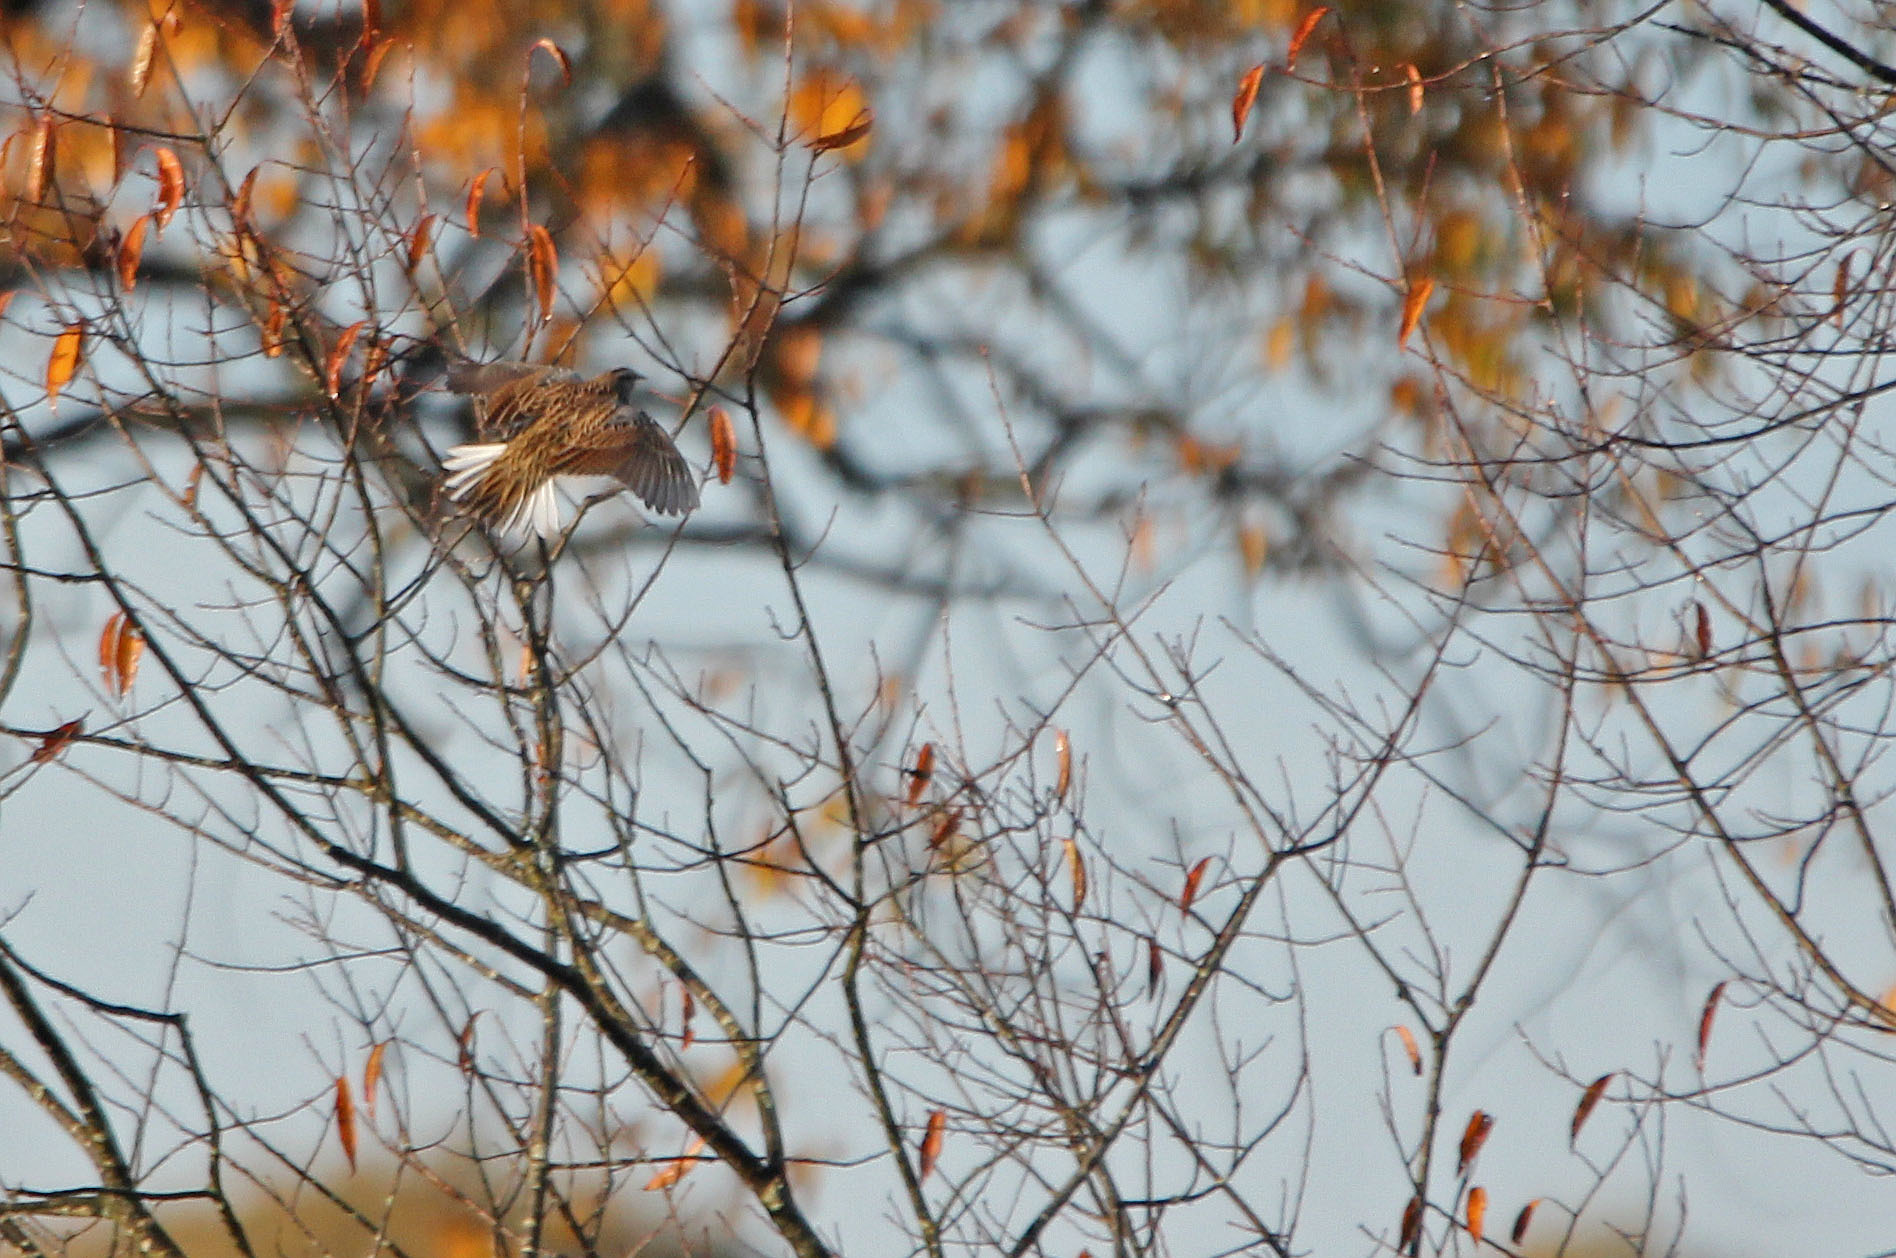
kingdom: Animalia
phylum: Chordata
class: Aves
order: Passeriformes
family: Icteridae
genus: Sturnella
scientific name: Sturnella magna
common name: Eastern meadowlark
